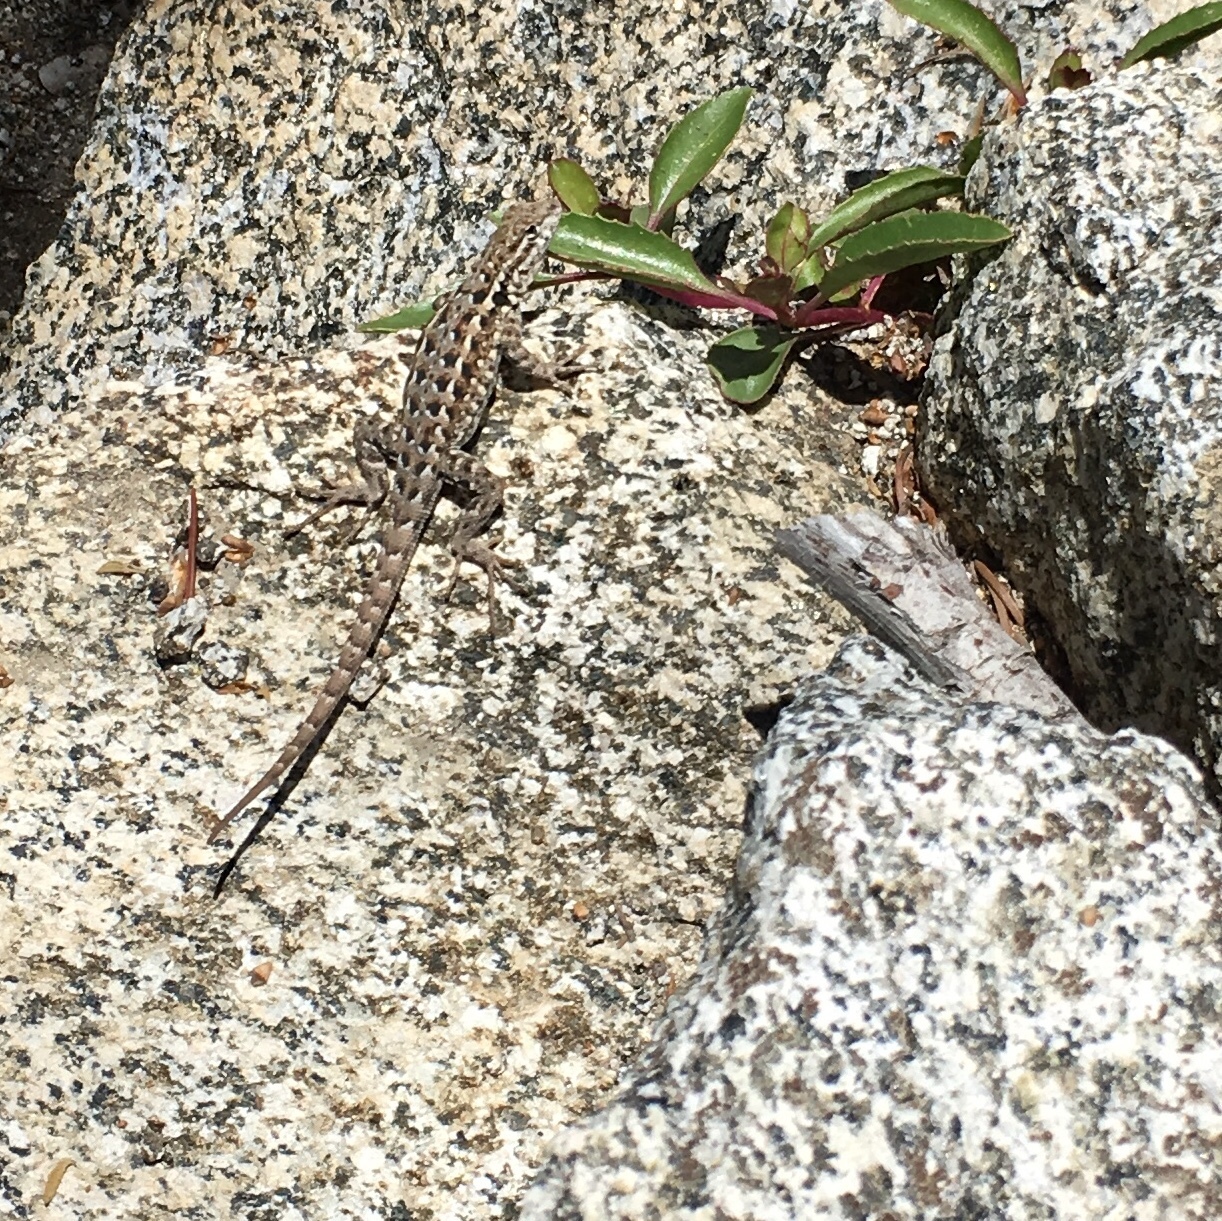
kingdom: Animalia
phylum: Chordata
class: Squamata
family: Phrynosomatidae
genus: Uta
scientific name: Uta stansburiana
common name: Side-blotched lizard
